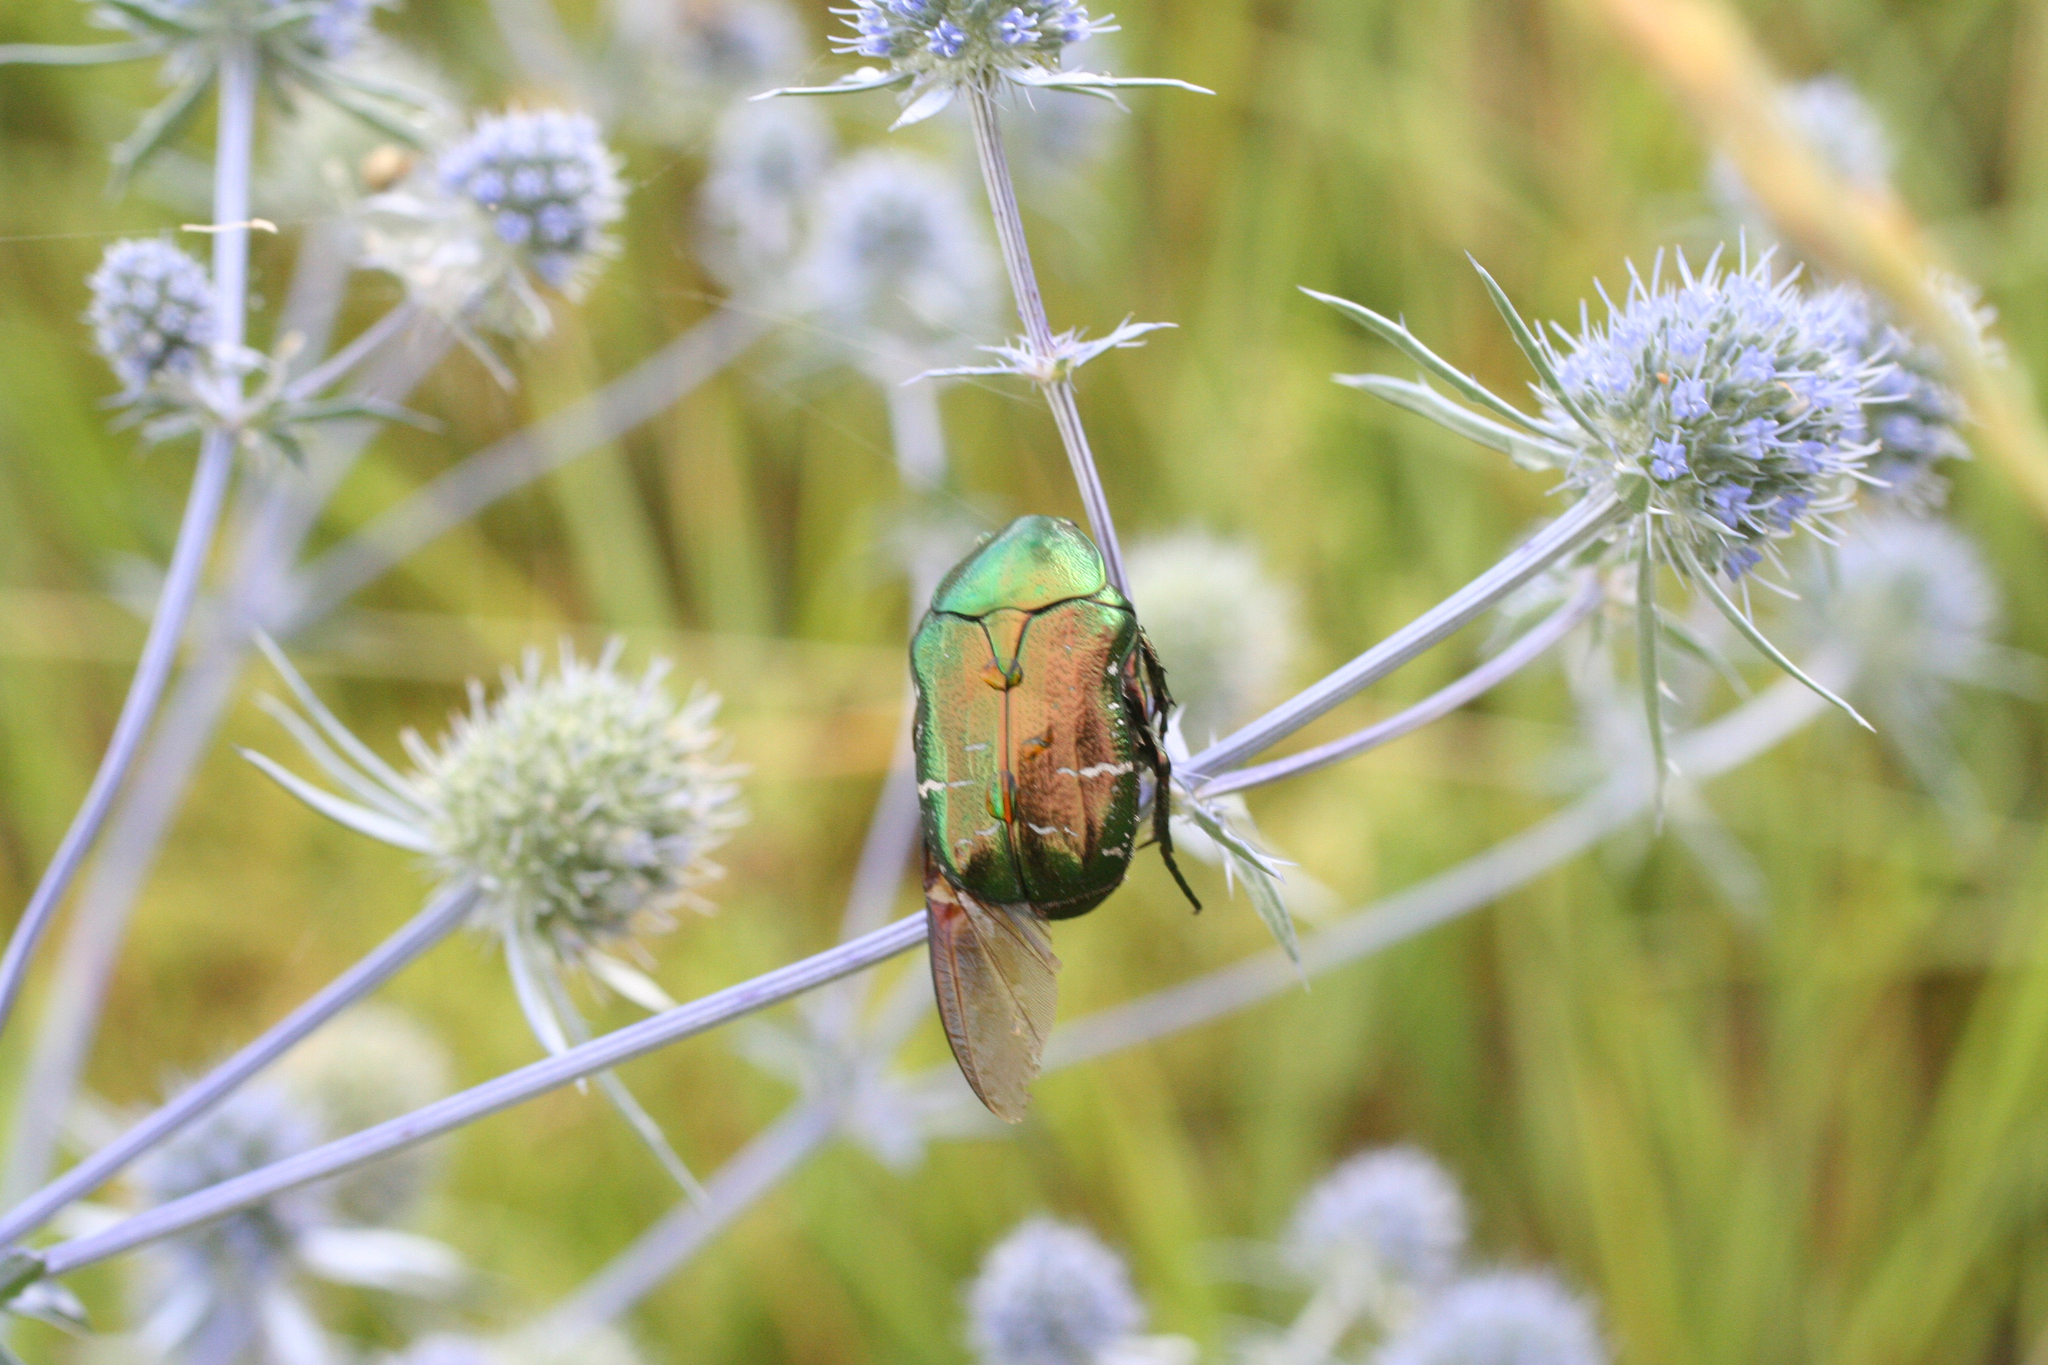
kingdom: Animalia
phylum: Arthropoda
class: Insecta
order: Coleoptera
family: Scarabaeidae
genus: Cetonia
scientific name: Cetonia aurata
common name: Rose chafer
